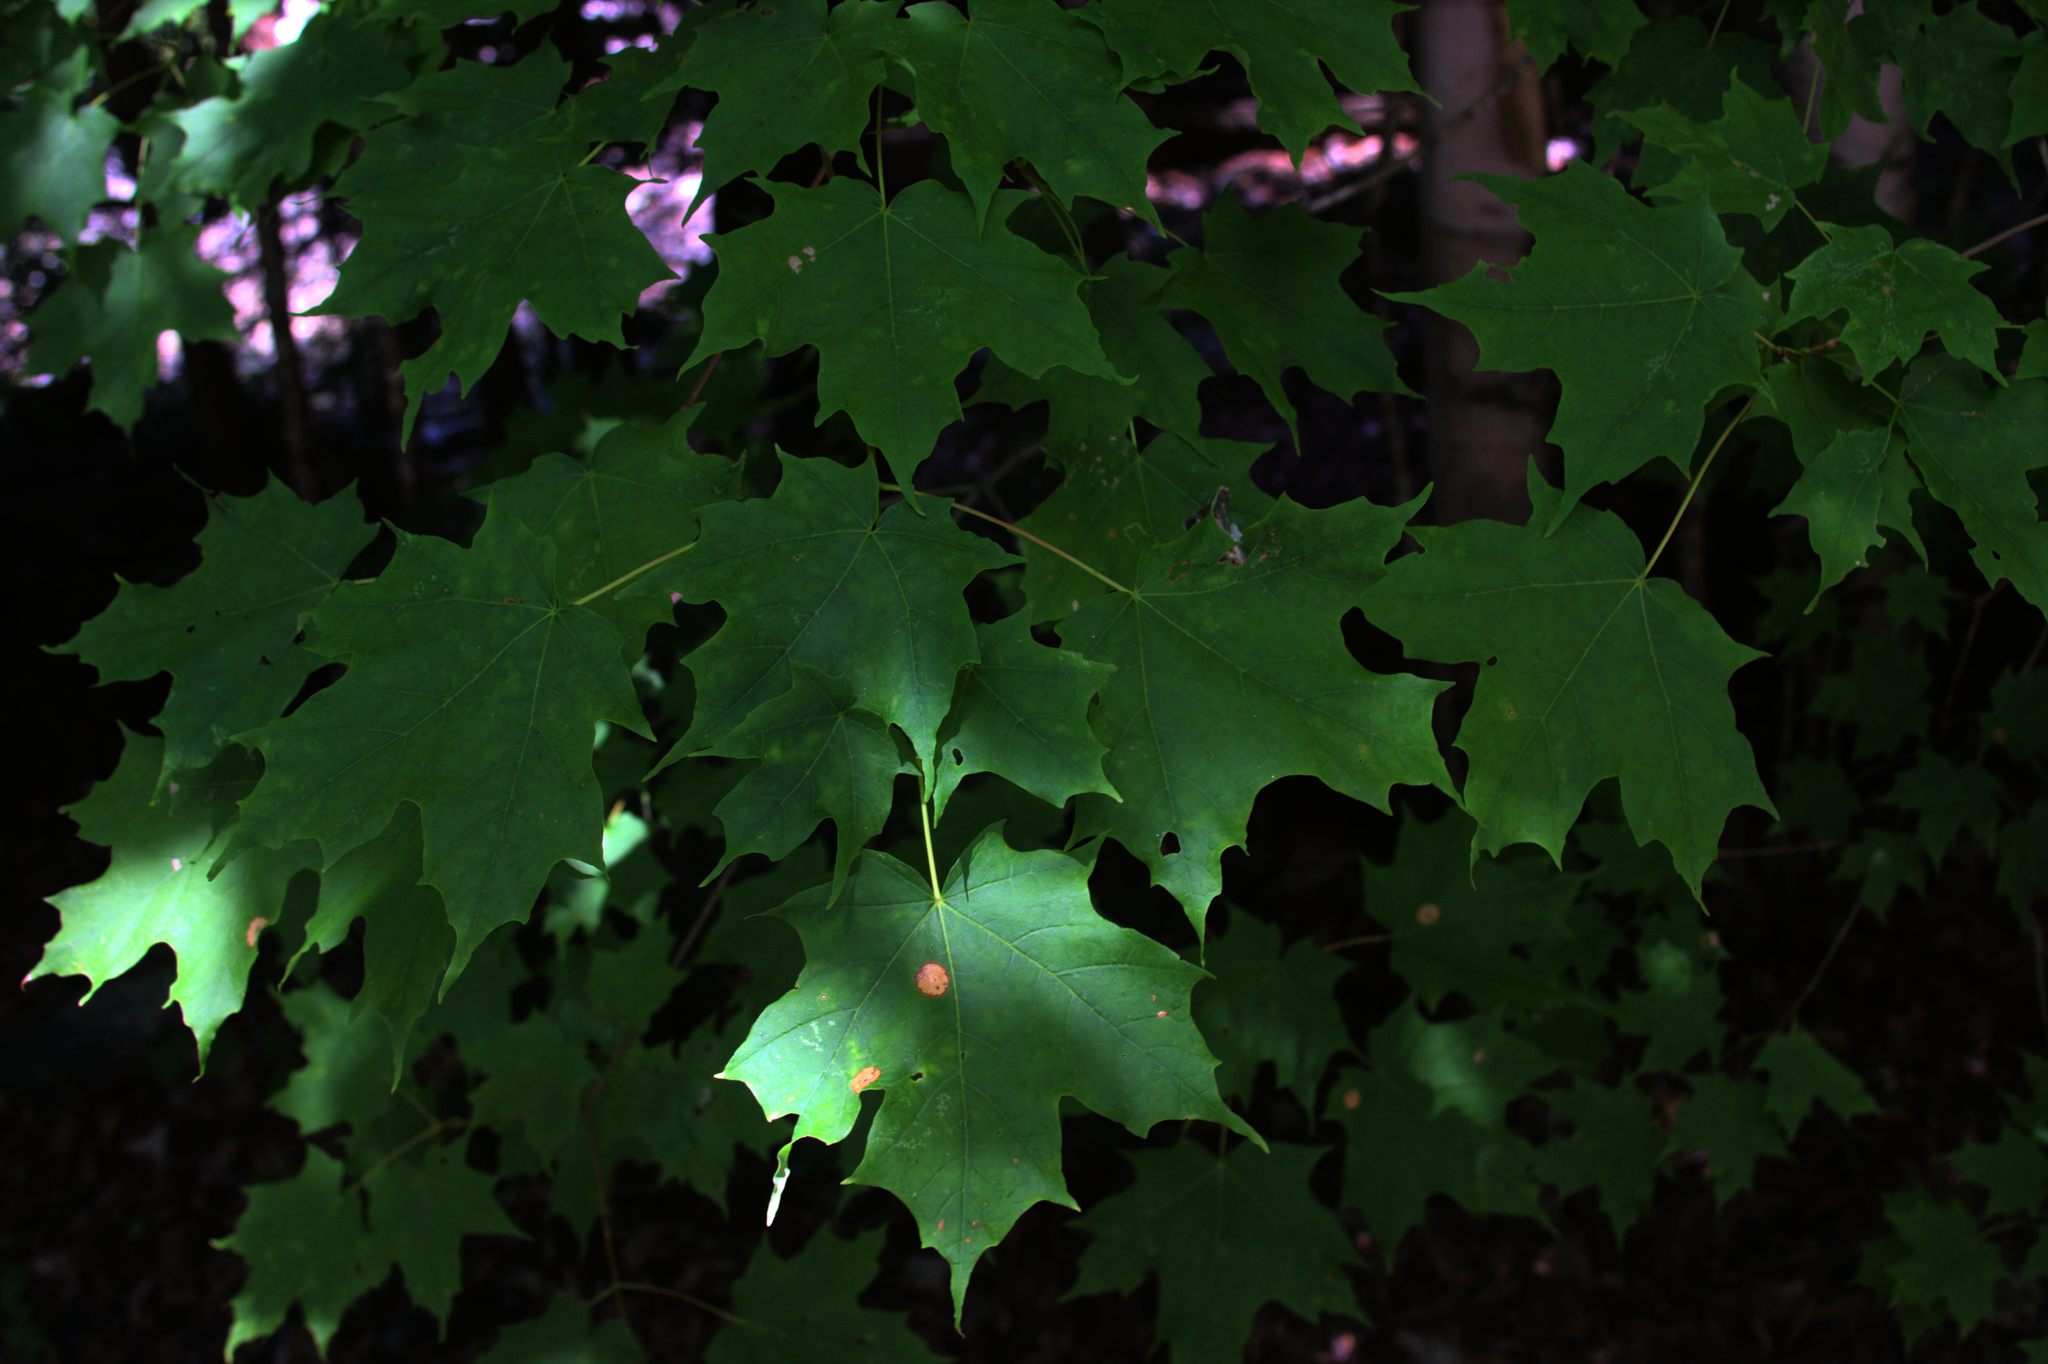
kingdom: Plantae
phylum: Tracheophyta
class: Magnoliopsida
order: Sapindales
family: Sapindaceae
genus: Acer
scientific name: Acer saccharum
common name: Sugar maple
